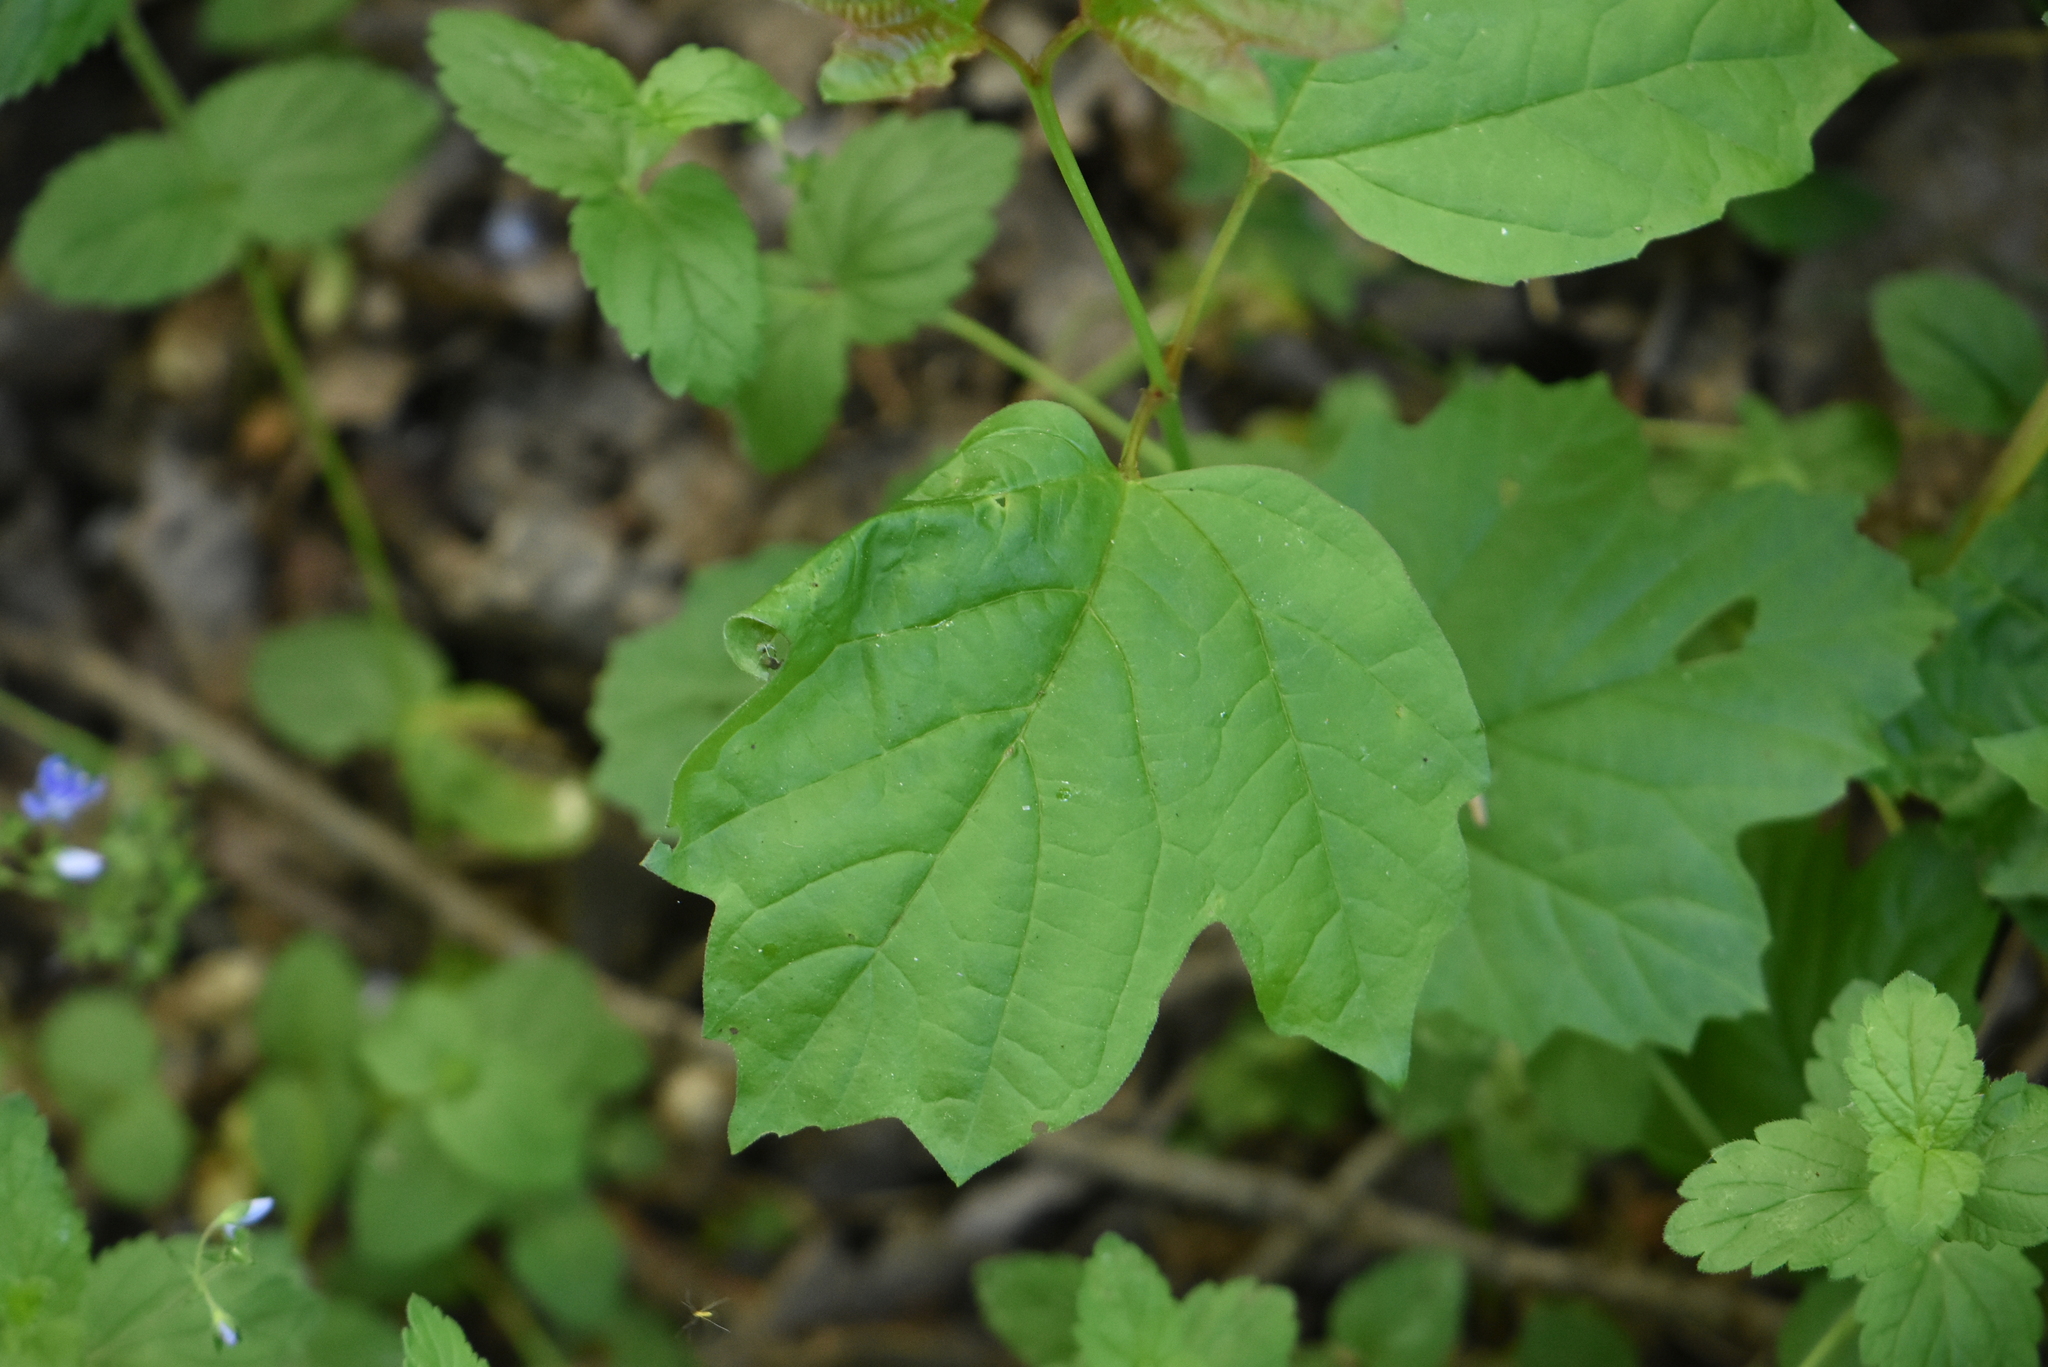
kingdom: Plantae
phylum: Tracheophyta
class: Magnoliopsida
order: Dipsacales
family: Viburnaceae
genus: Viburnum
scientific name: Viburnum opulus
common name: Guelder-rose
